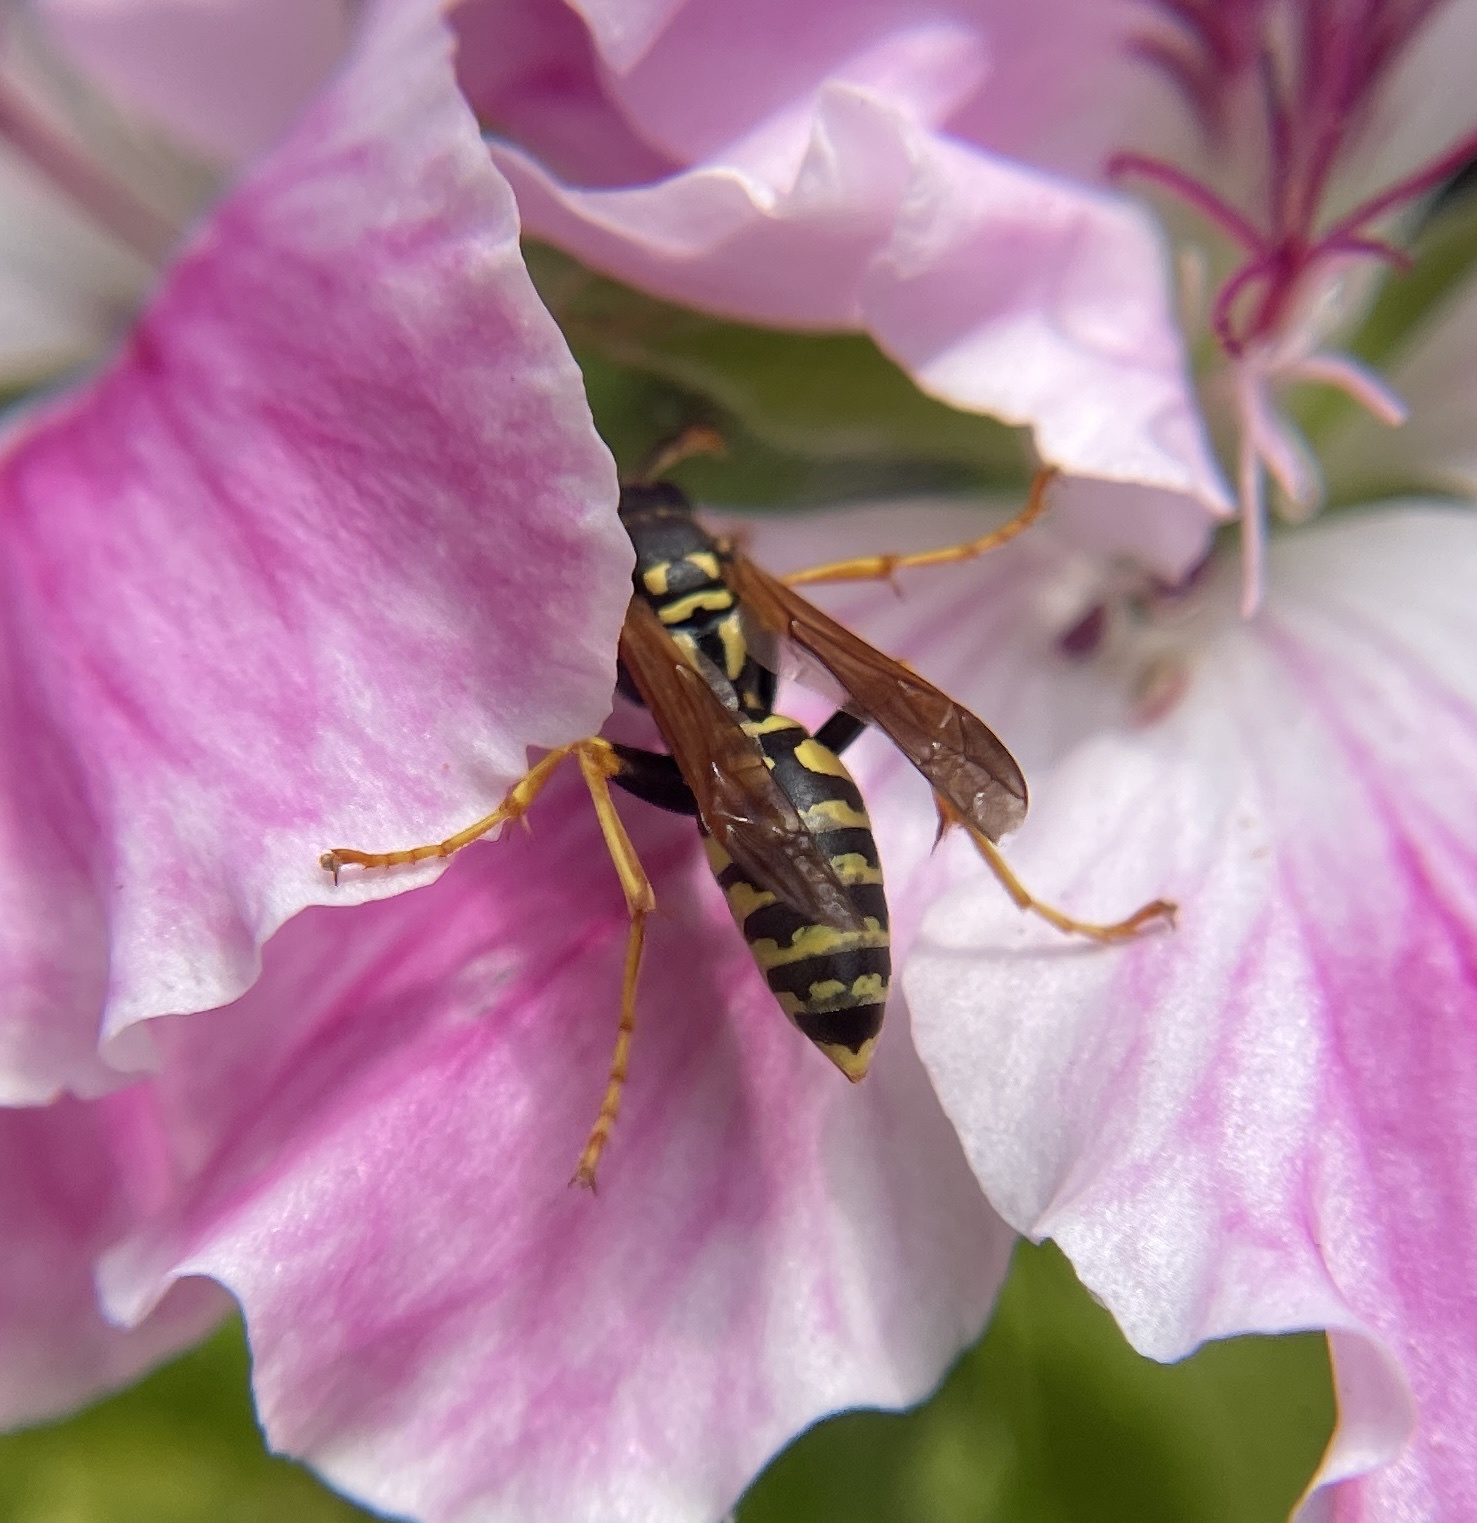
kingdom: Animalia
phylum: Arthropoda
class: Insecta
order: Hymenoptera
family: Eumenidae
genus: Polistes
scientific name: Polistes dominula
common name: Paper wasp
